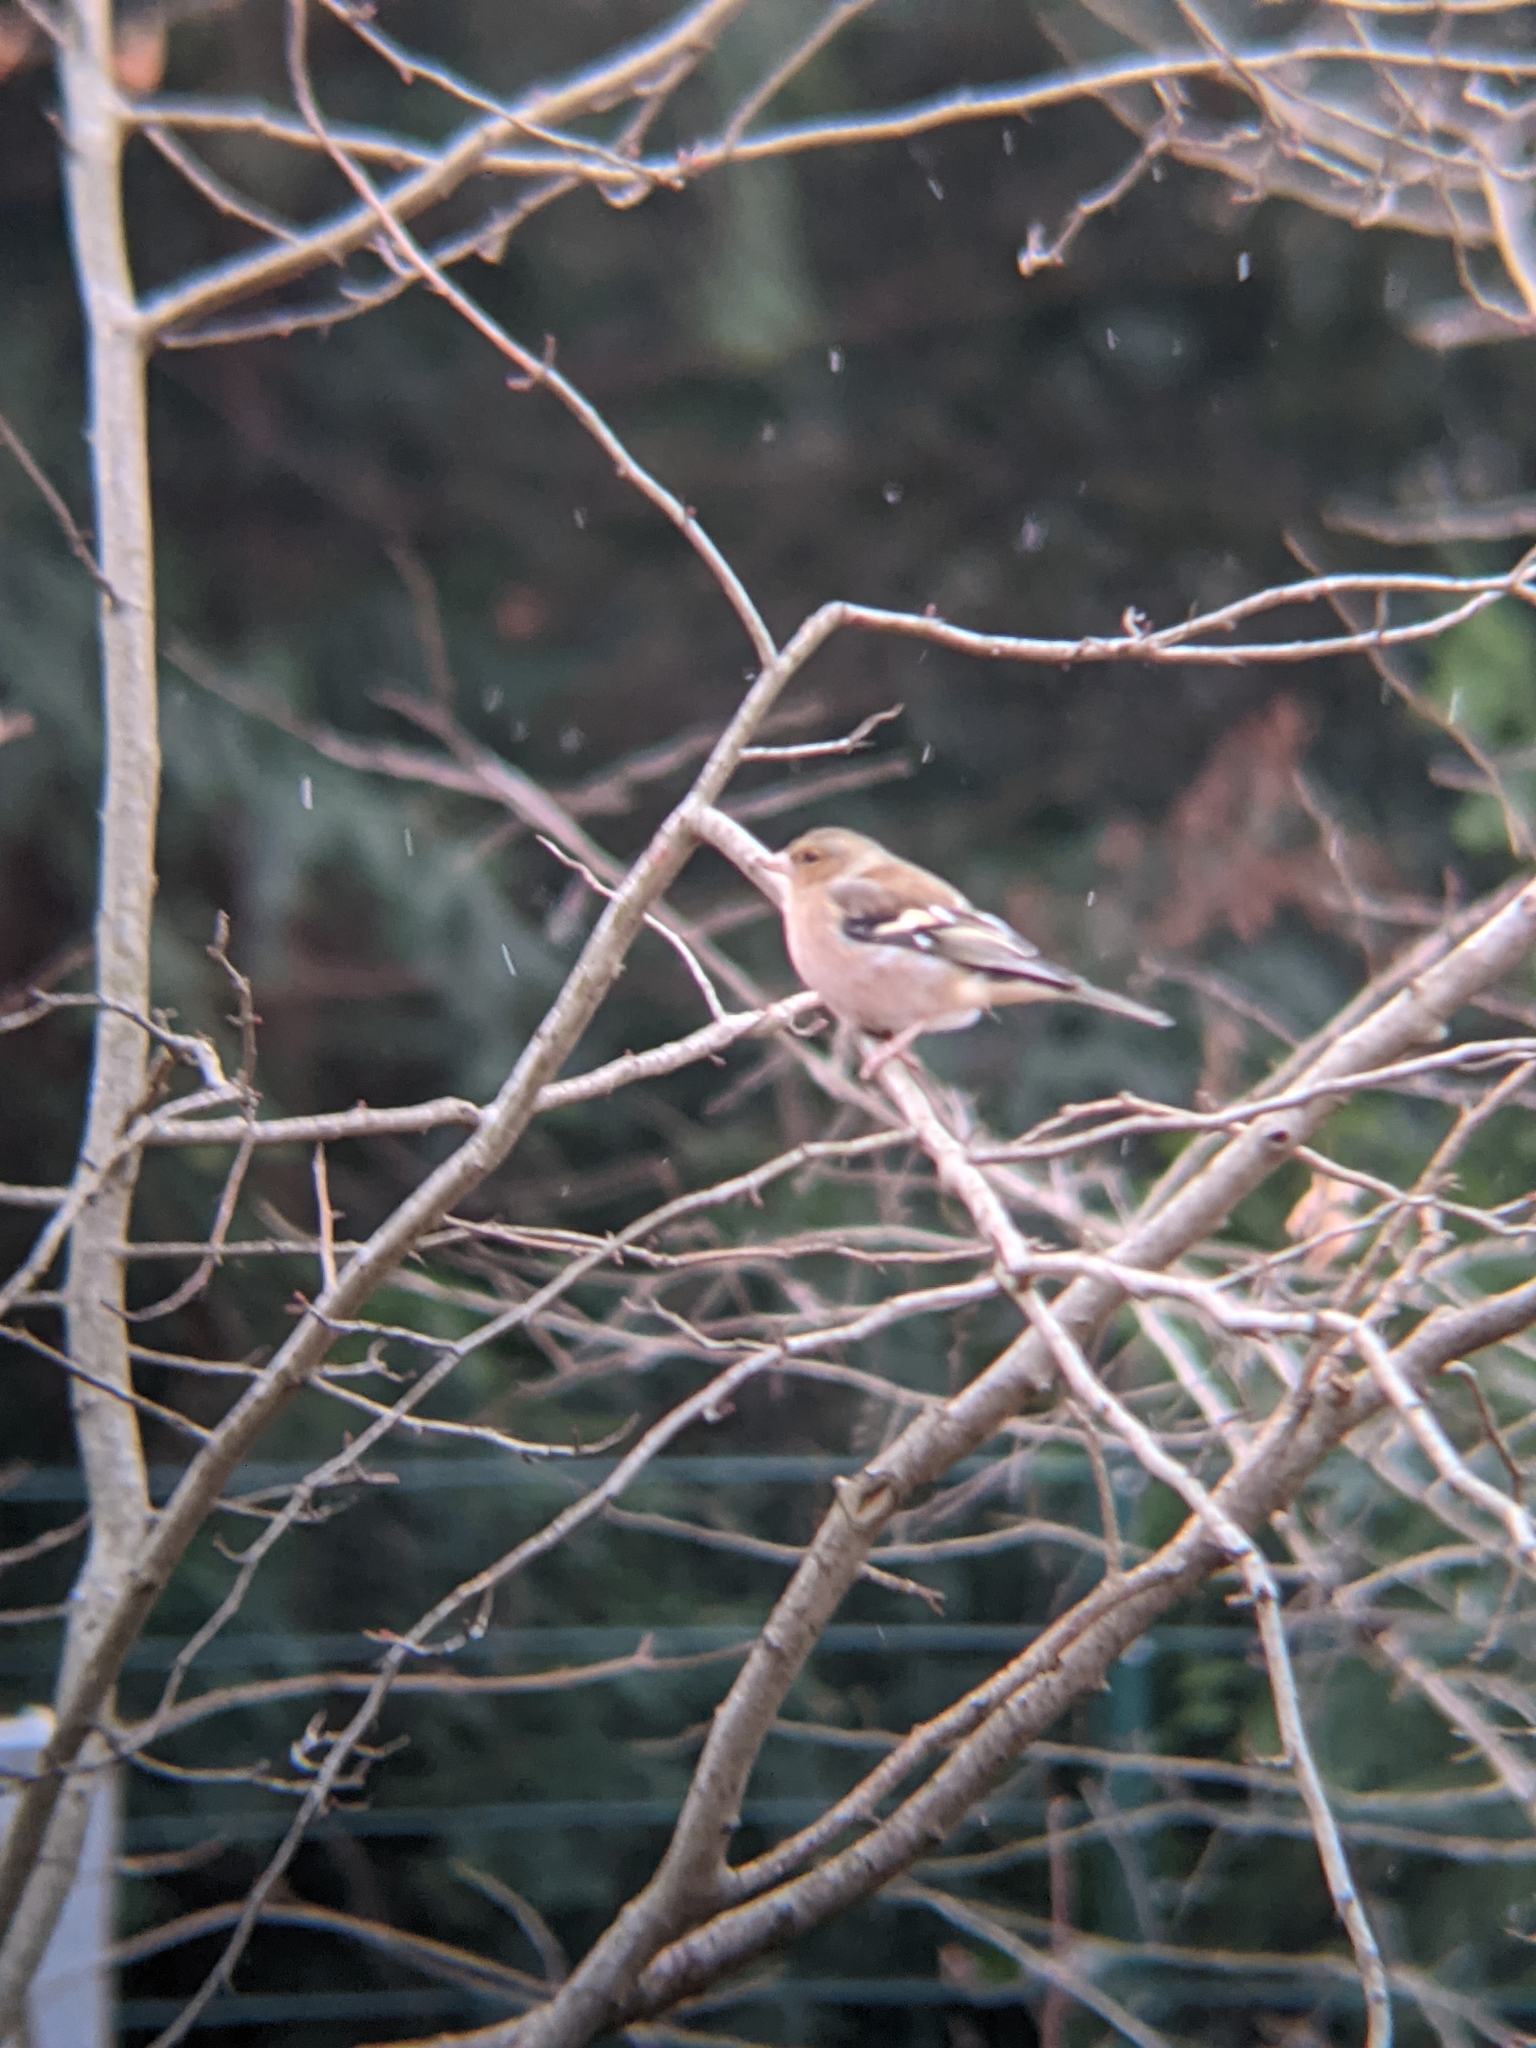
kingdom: Animalia
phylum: Chordata
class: Aves
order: Passeriformes
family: Fringillidae
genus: Fringilla
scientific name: Fringilla coelebs
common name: Common chaffinch
